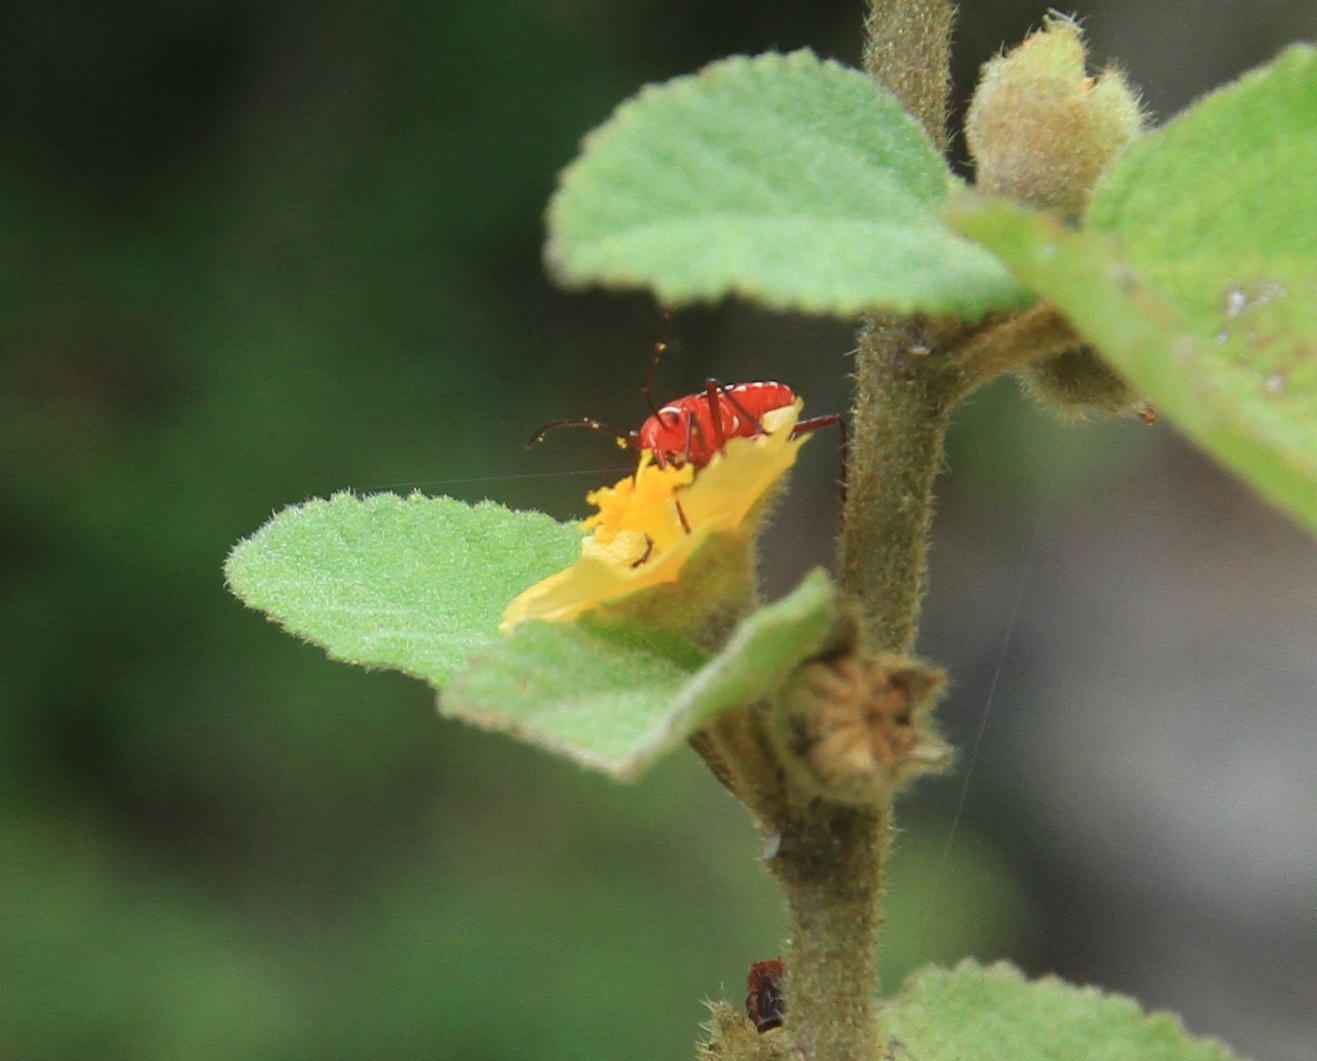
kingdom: Animalia
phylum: Arthropoda
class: Insecta
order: Hemiptera
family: Pyrrhocoridae
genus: Dysdercus
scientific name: Dysdercus andreae
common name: St. andrew's cotton stainer
